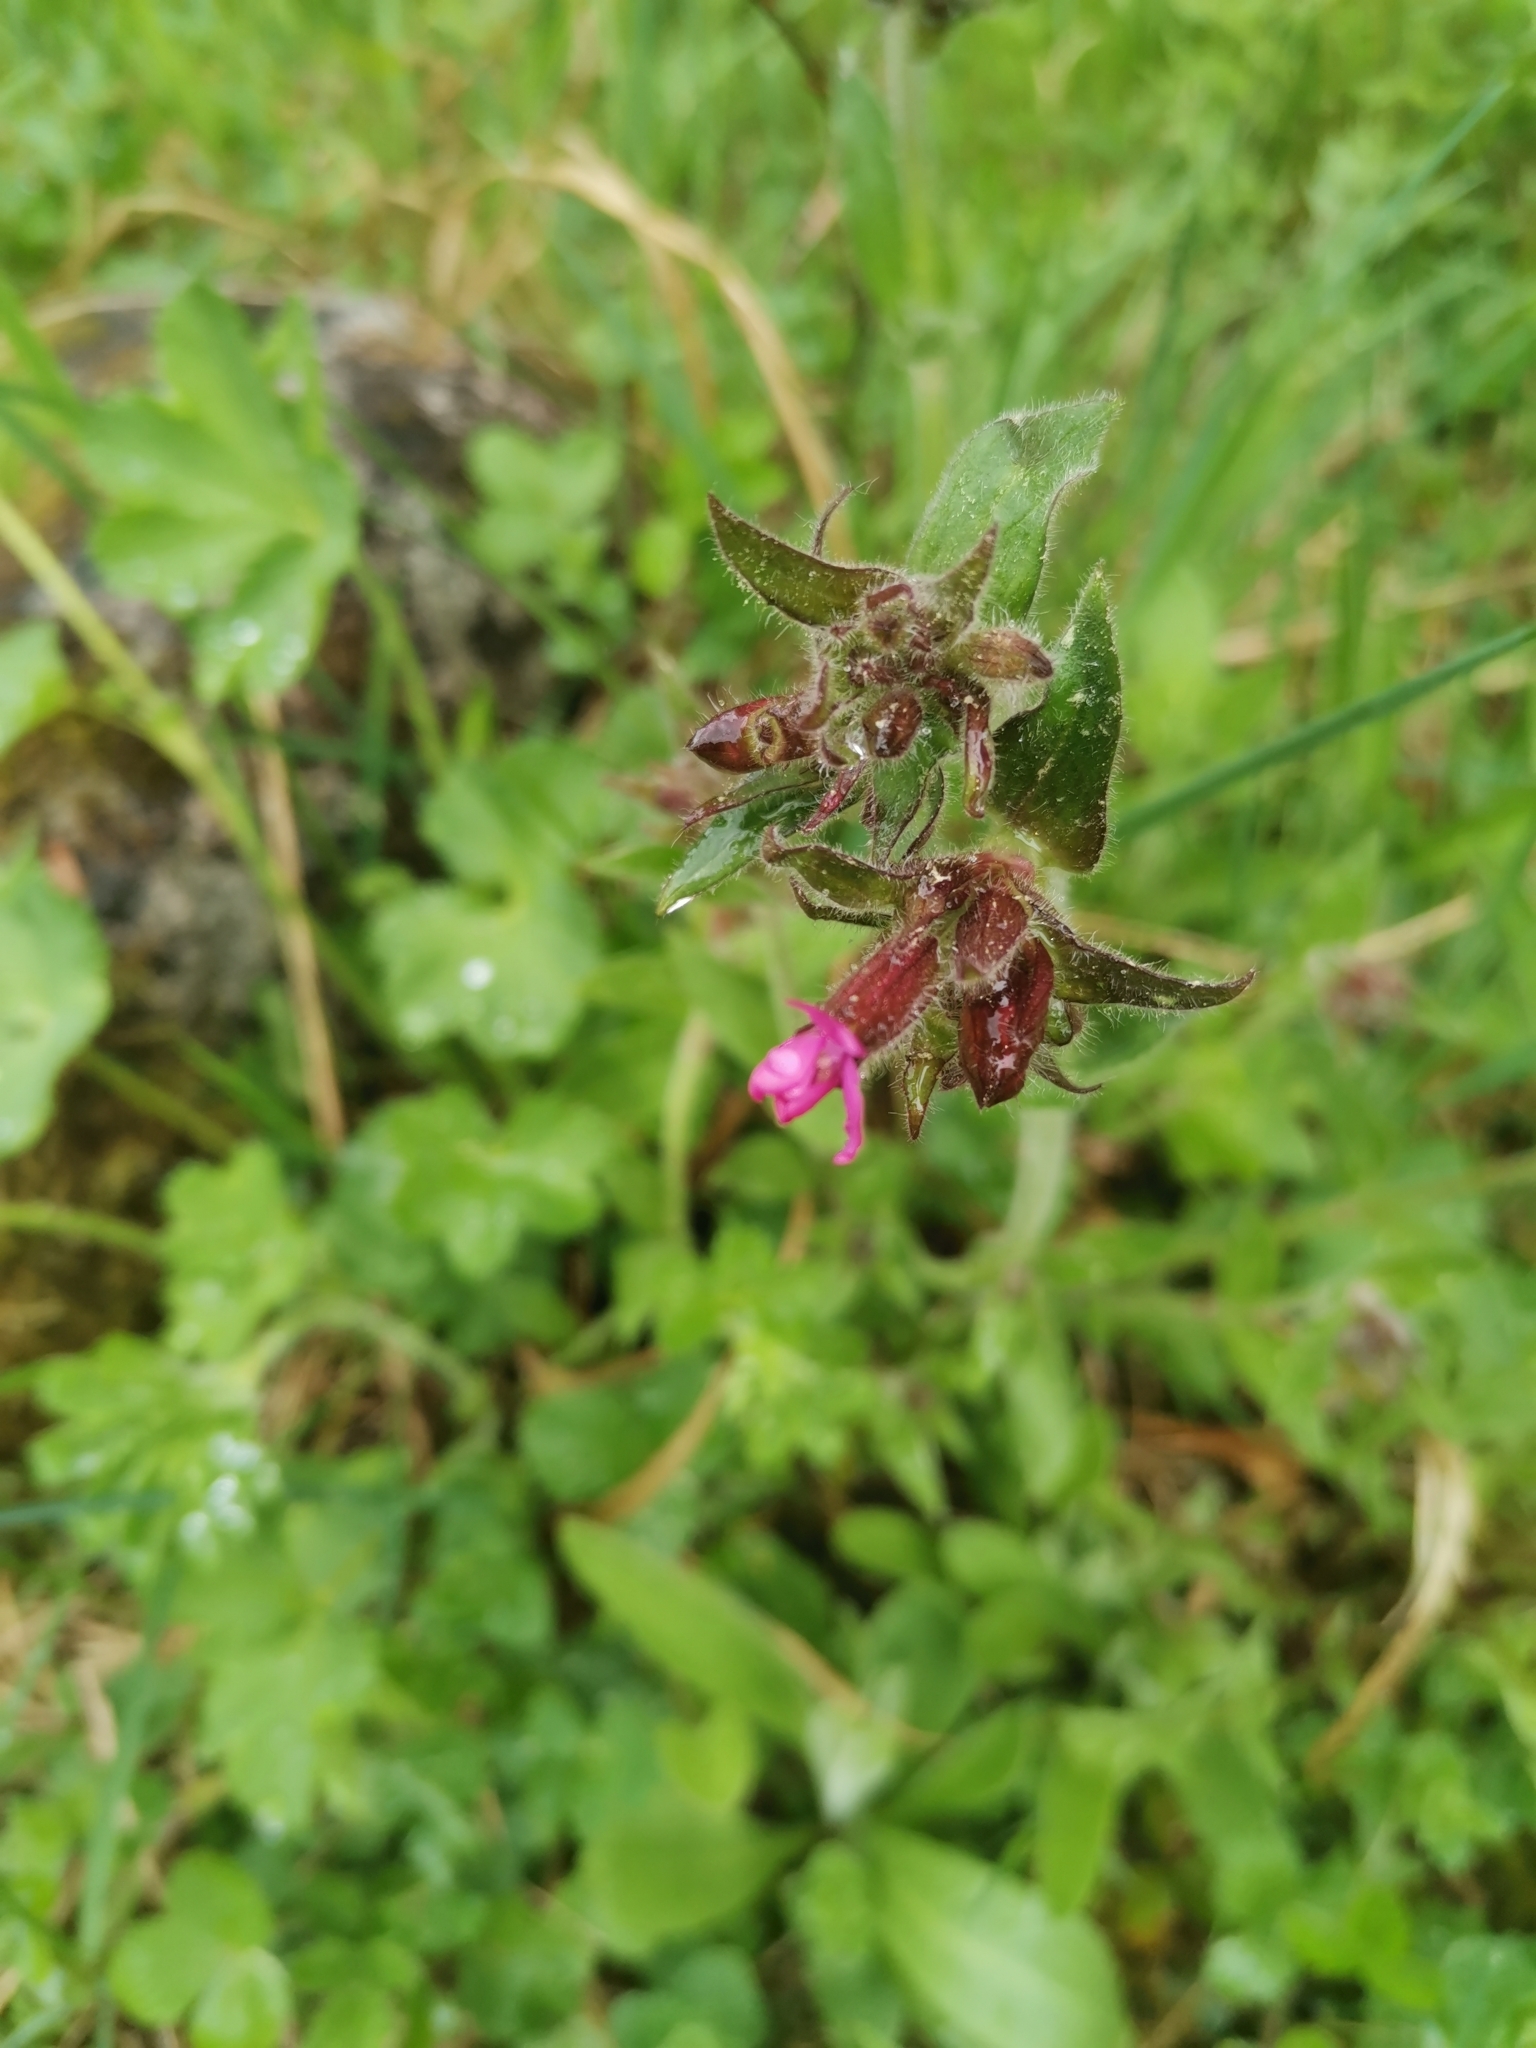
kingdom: Plantae
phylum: Tracheophyta
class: Magnoliopsida
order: Caryophyllales
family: Caryophyllaceae
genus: Silene
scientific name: Silene dioica
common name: Red campion
